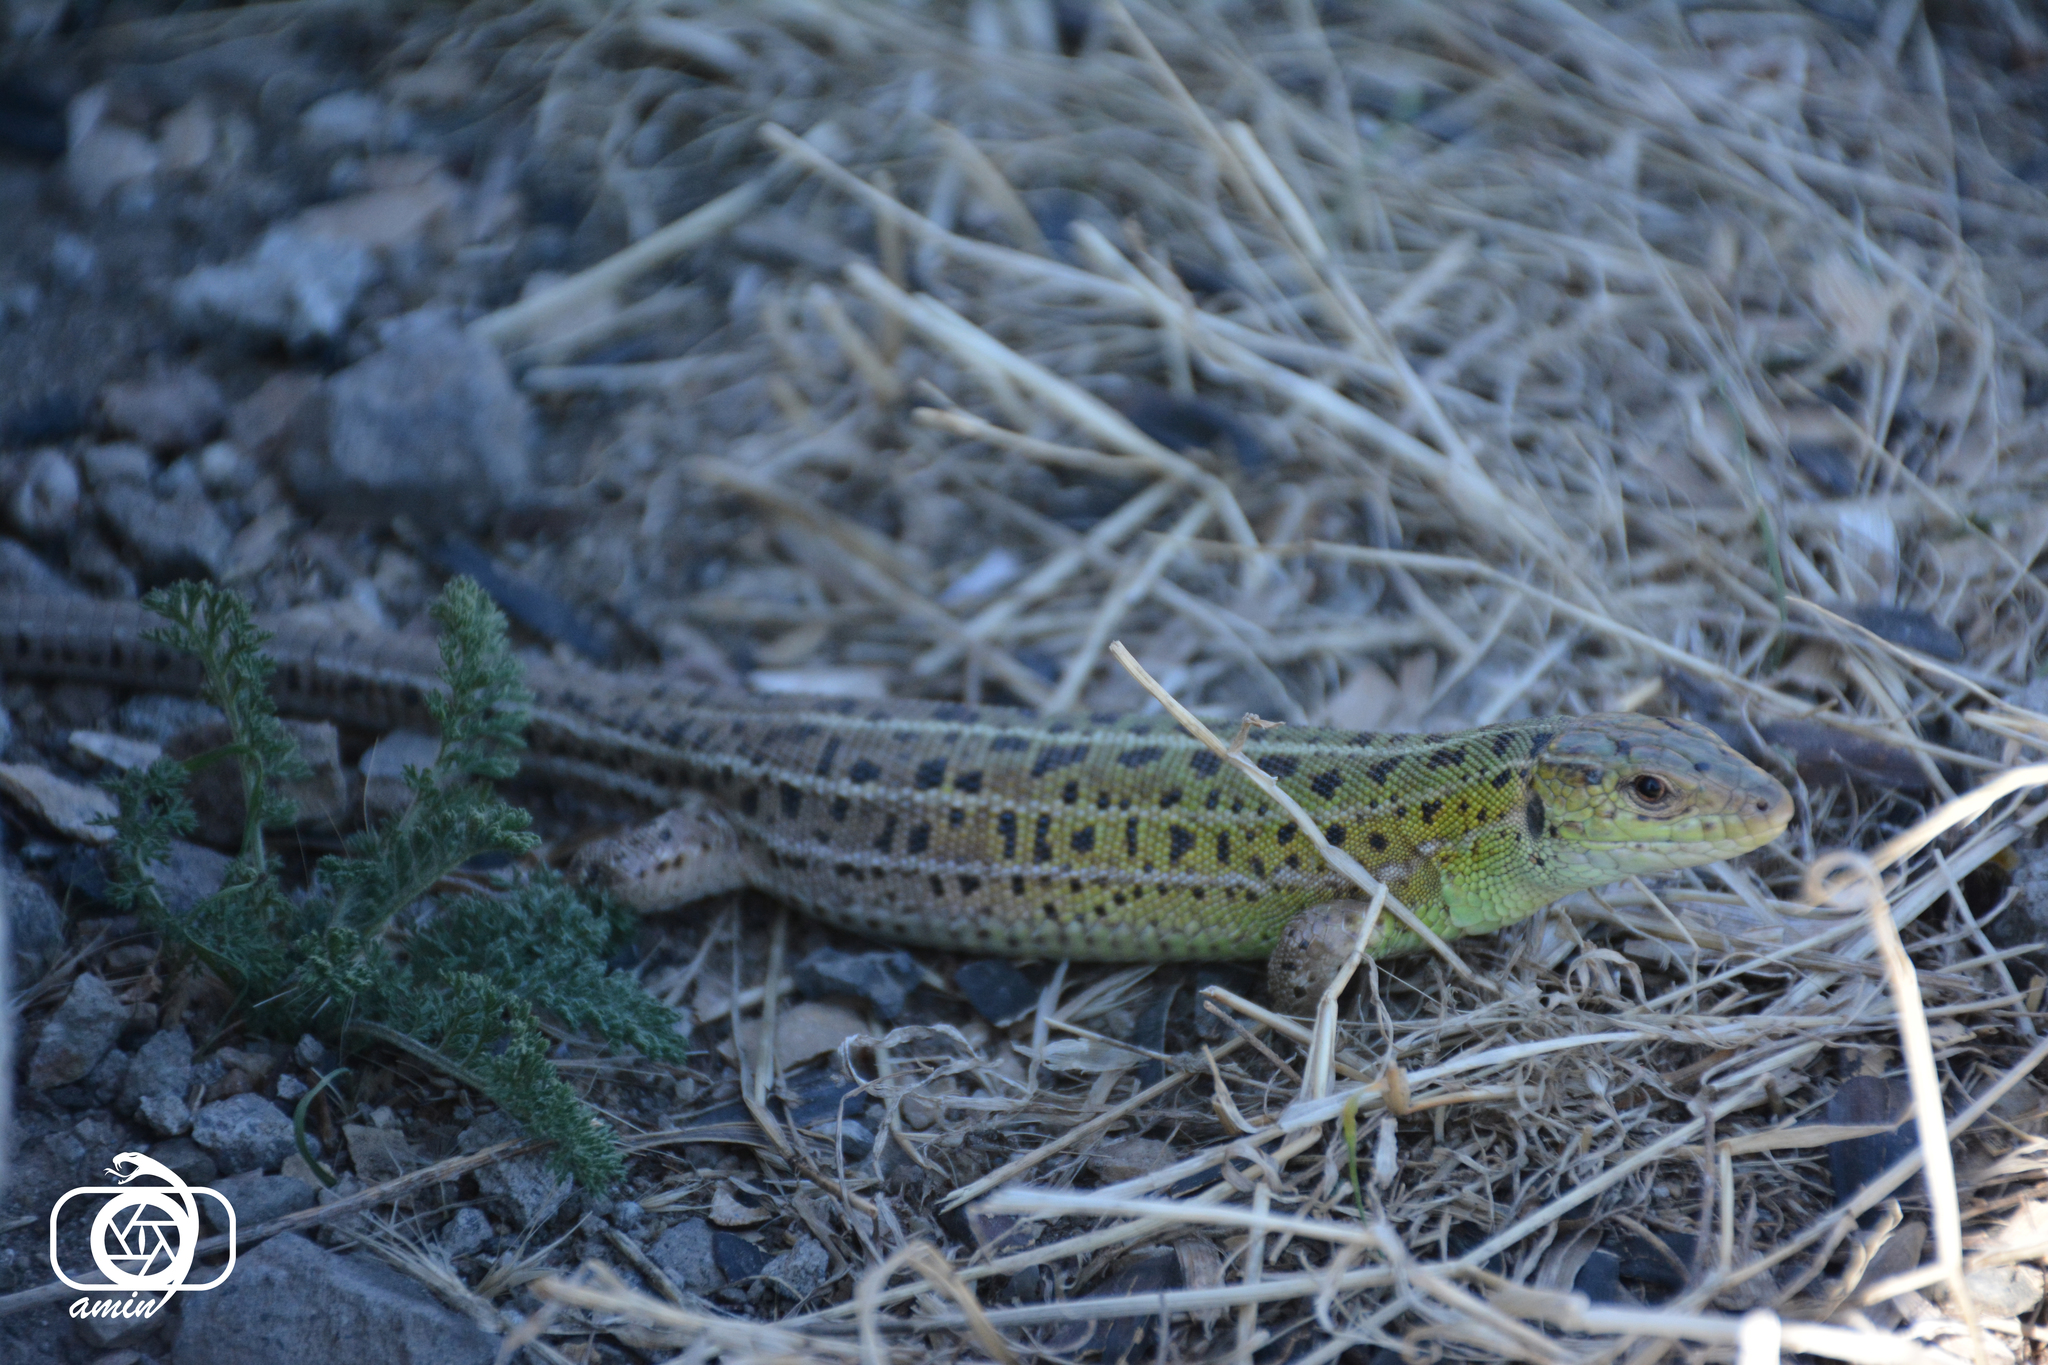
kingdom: Animalia
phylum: Chordata
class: Squamata
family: Lacertidae
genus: Lacerta
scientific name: Lacerta strigata
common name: Caspian green lizard
